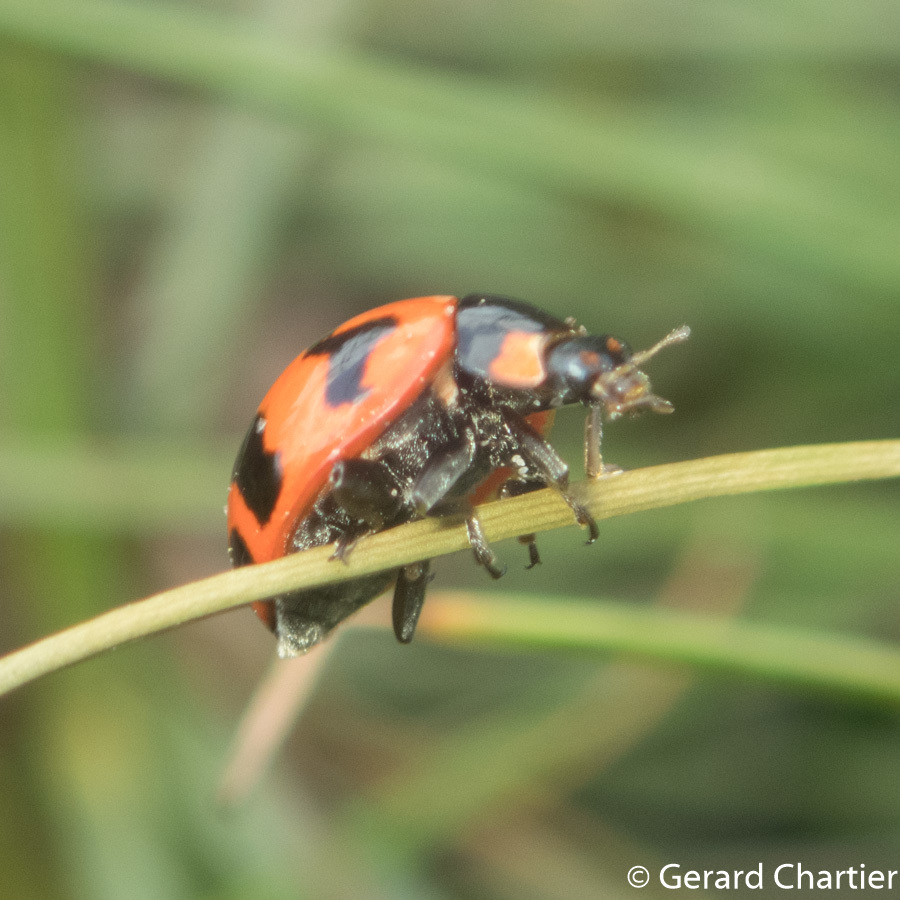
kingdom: Animalia
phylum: Arthropoda
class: Insecta
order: Coleoptera
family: Coccinellidae
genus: Coccinella
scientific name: Coccinella transversalis
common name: Transverse lady beetle
